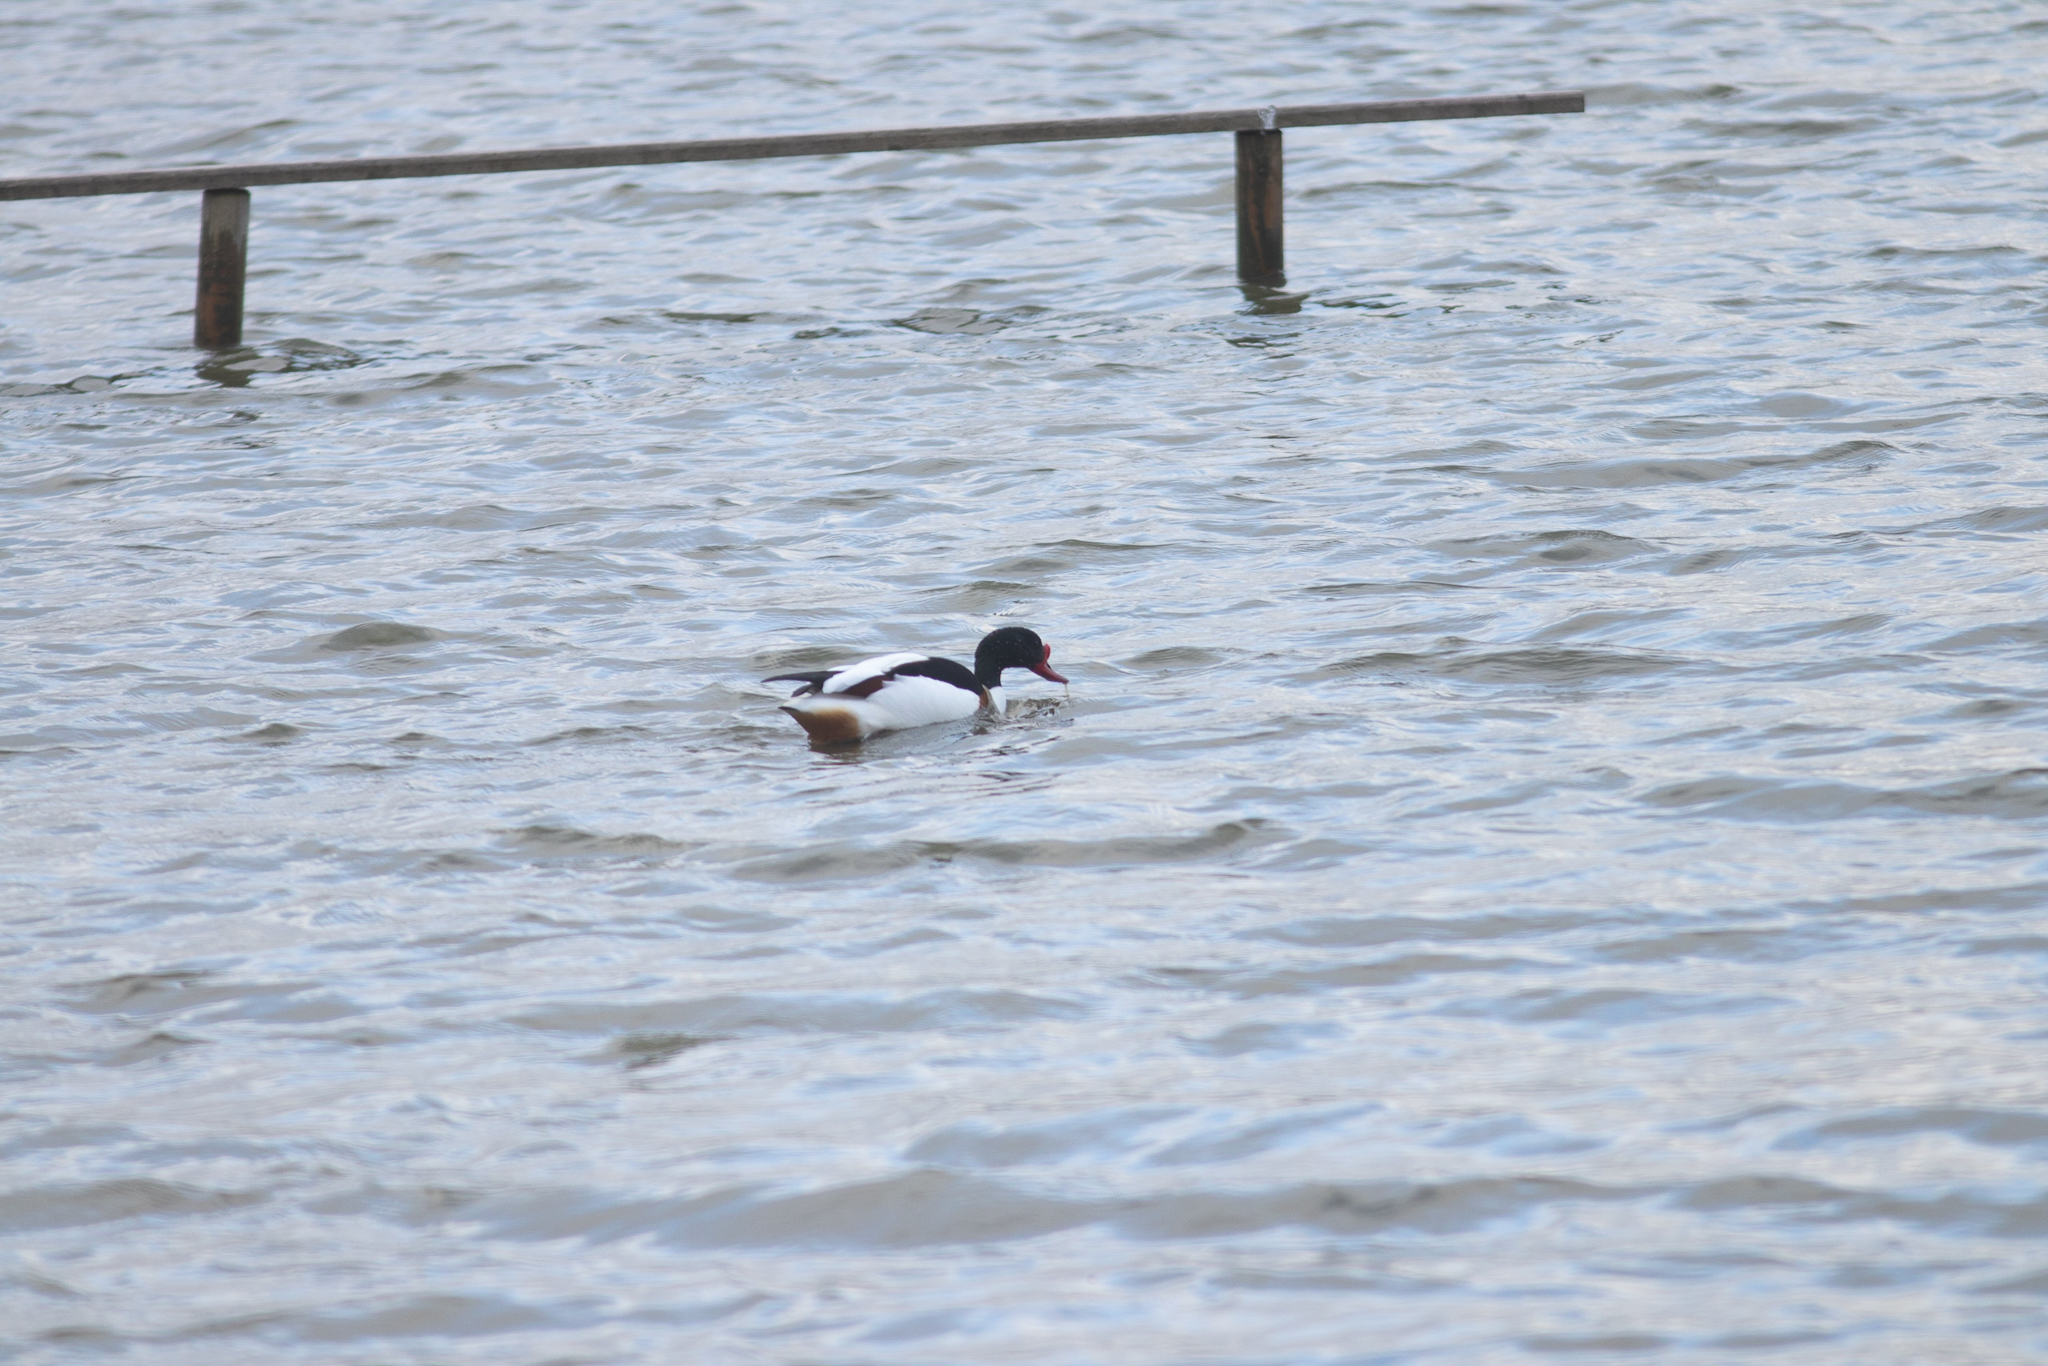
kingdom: Animalia
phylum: Chordata
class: Aves
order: Anseriformes
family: Anatidae
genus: Tadorna
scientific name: Tadorna tadorna
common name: Common shelduck
